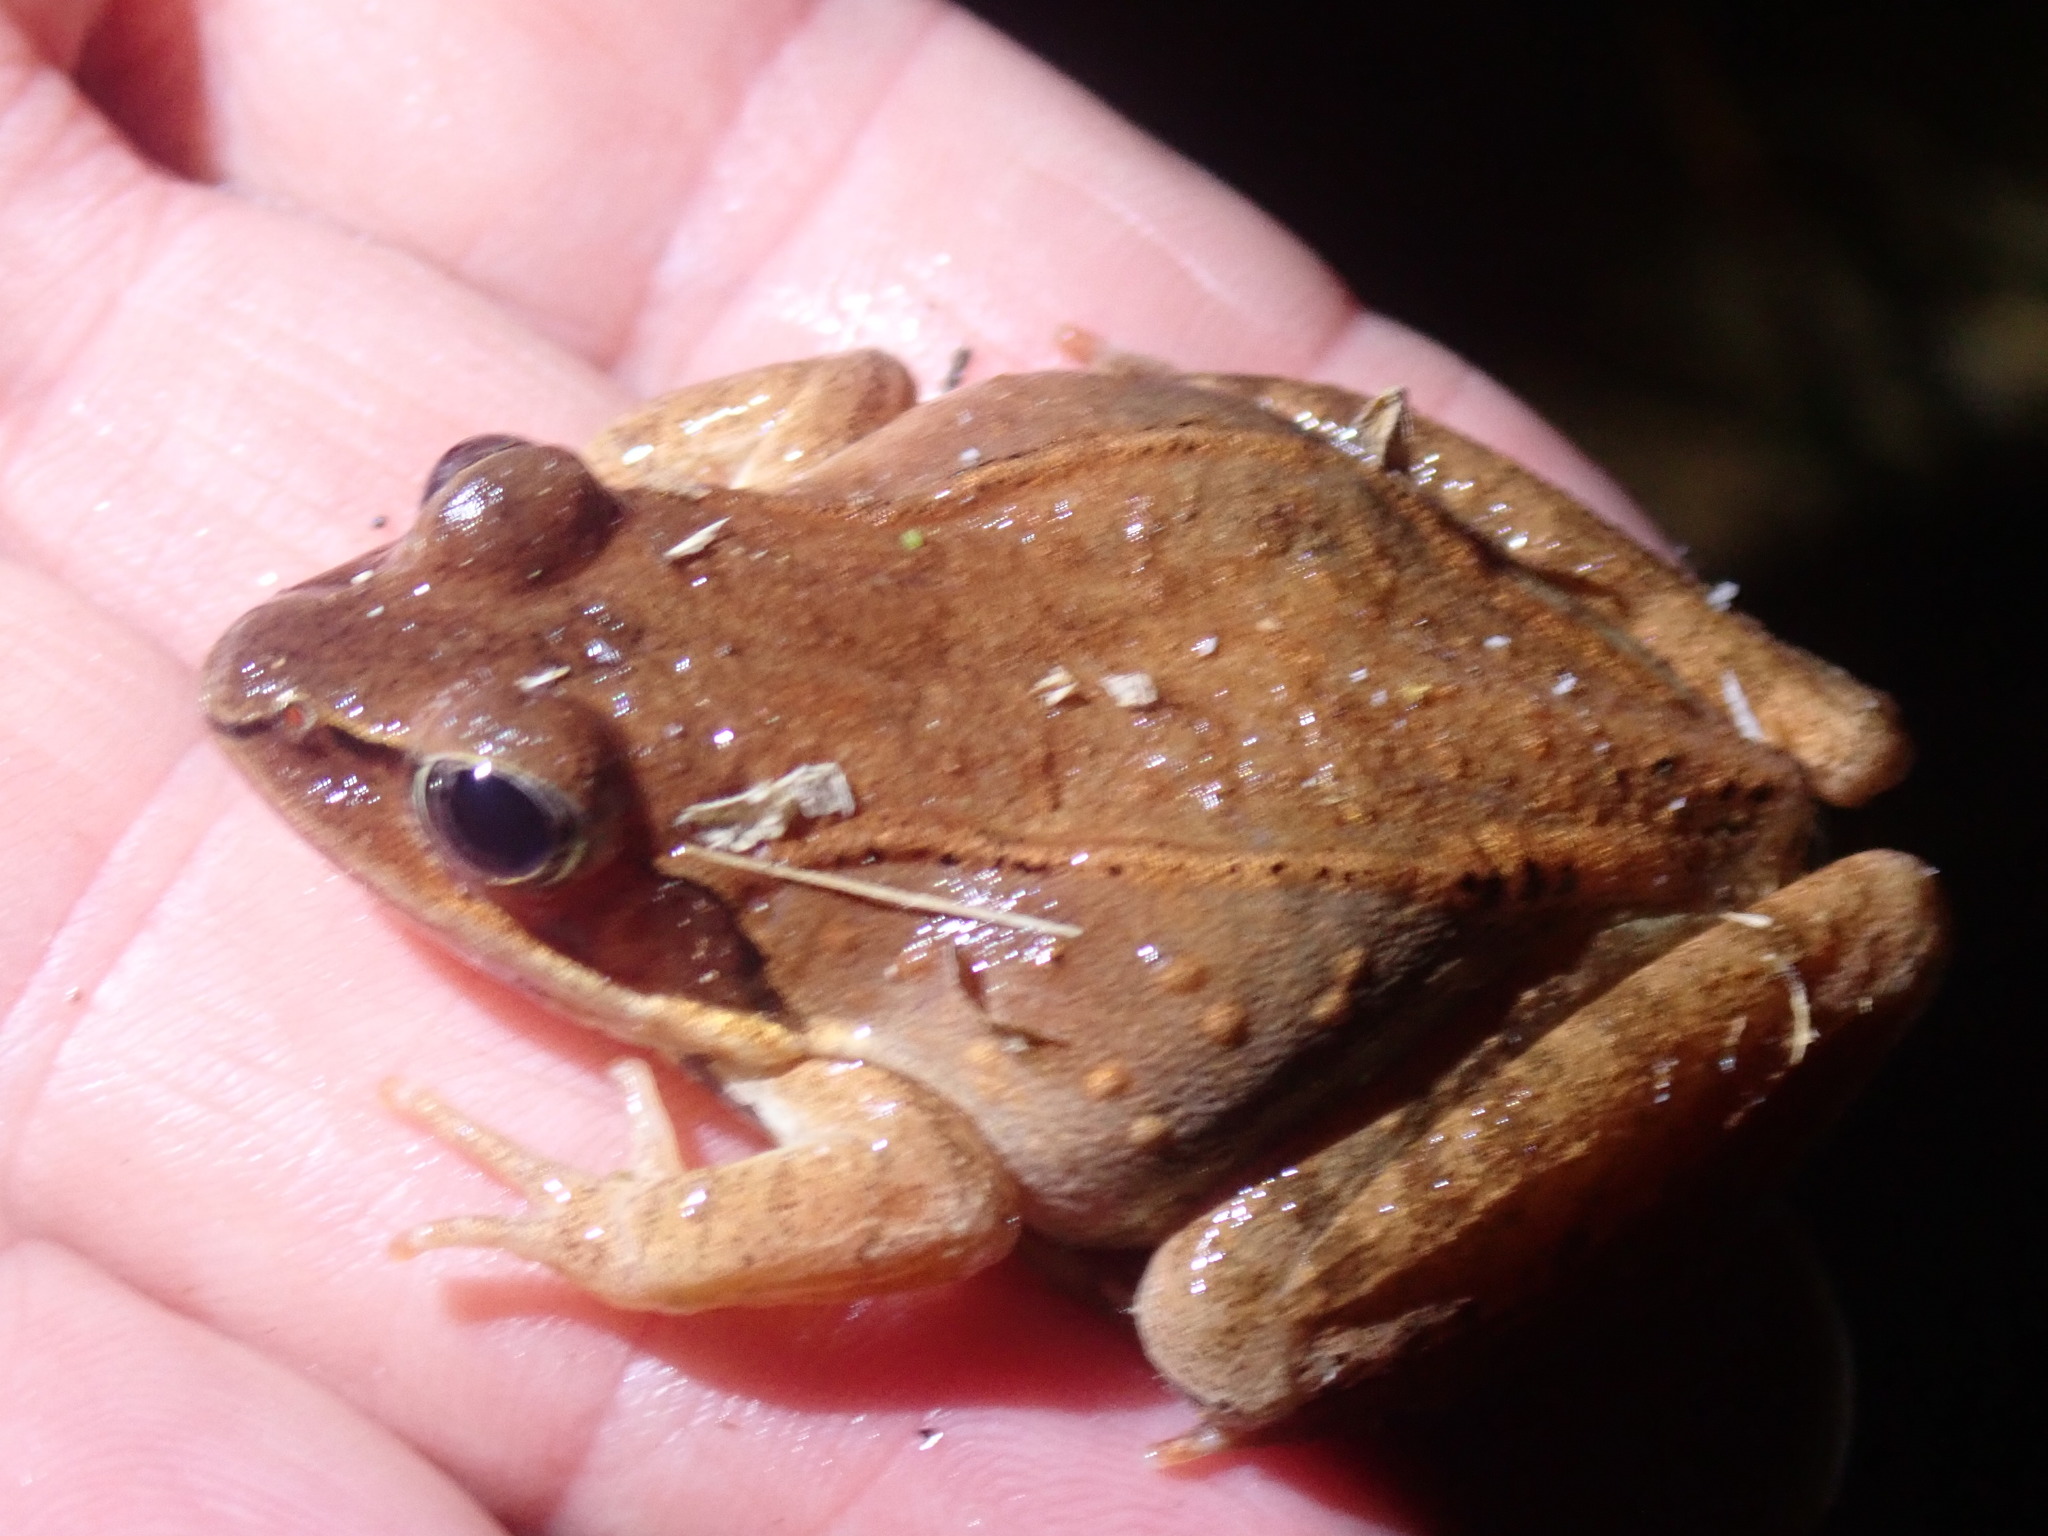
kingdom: Animalia
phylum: Chordata
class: Amphibia
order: Anura
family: Ranidae
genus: Lithobates
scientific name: Lithobates sylvaticus
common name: Wood frog
